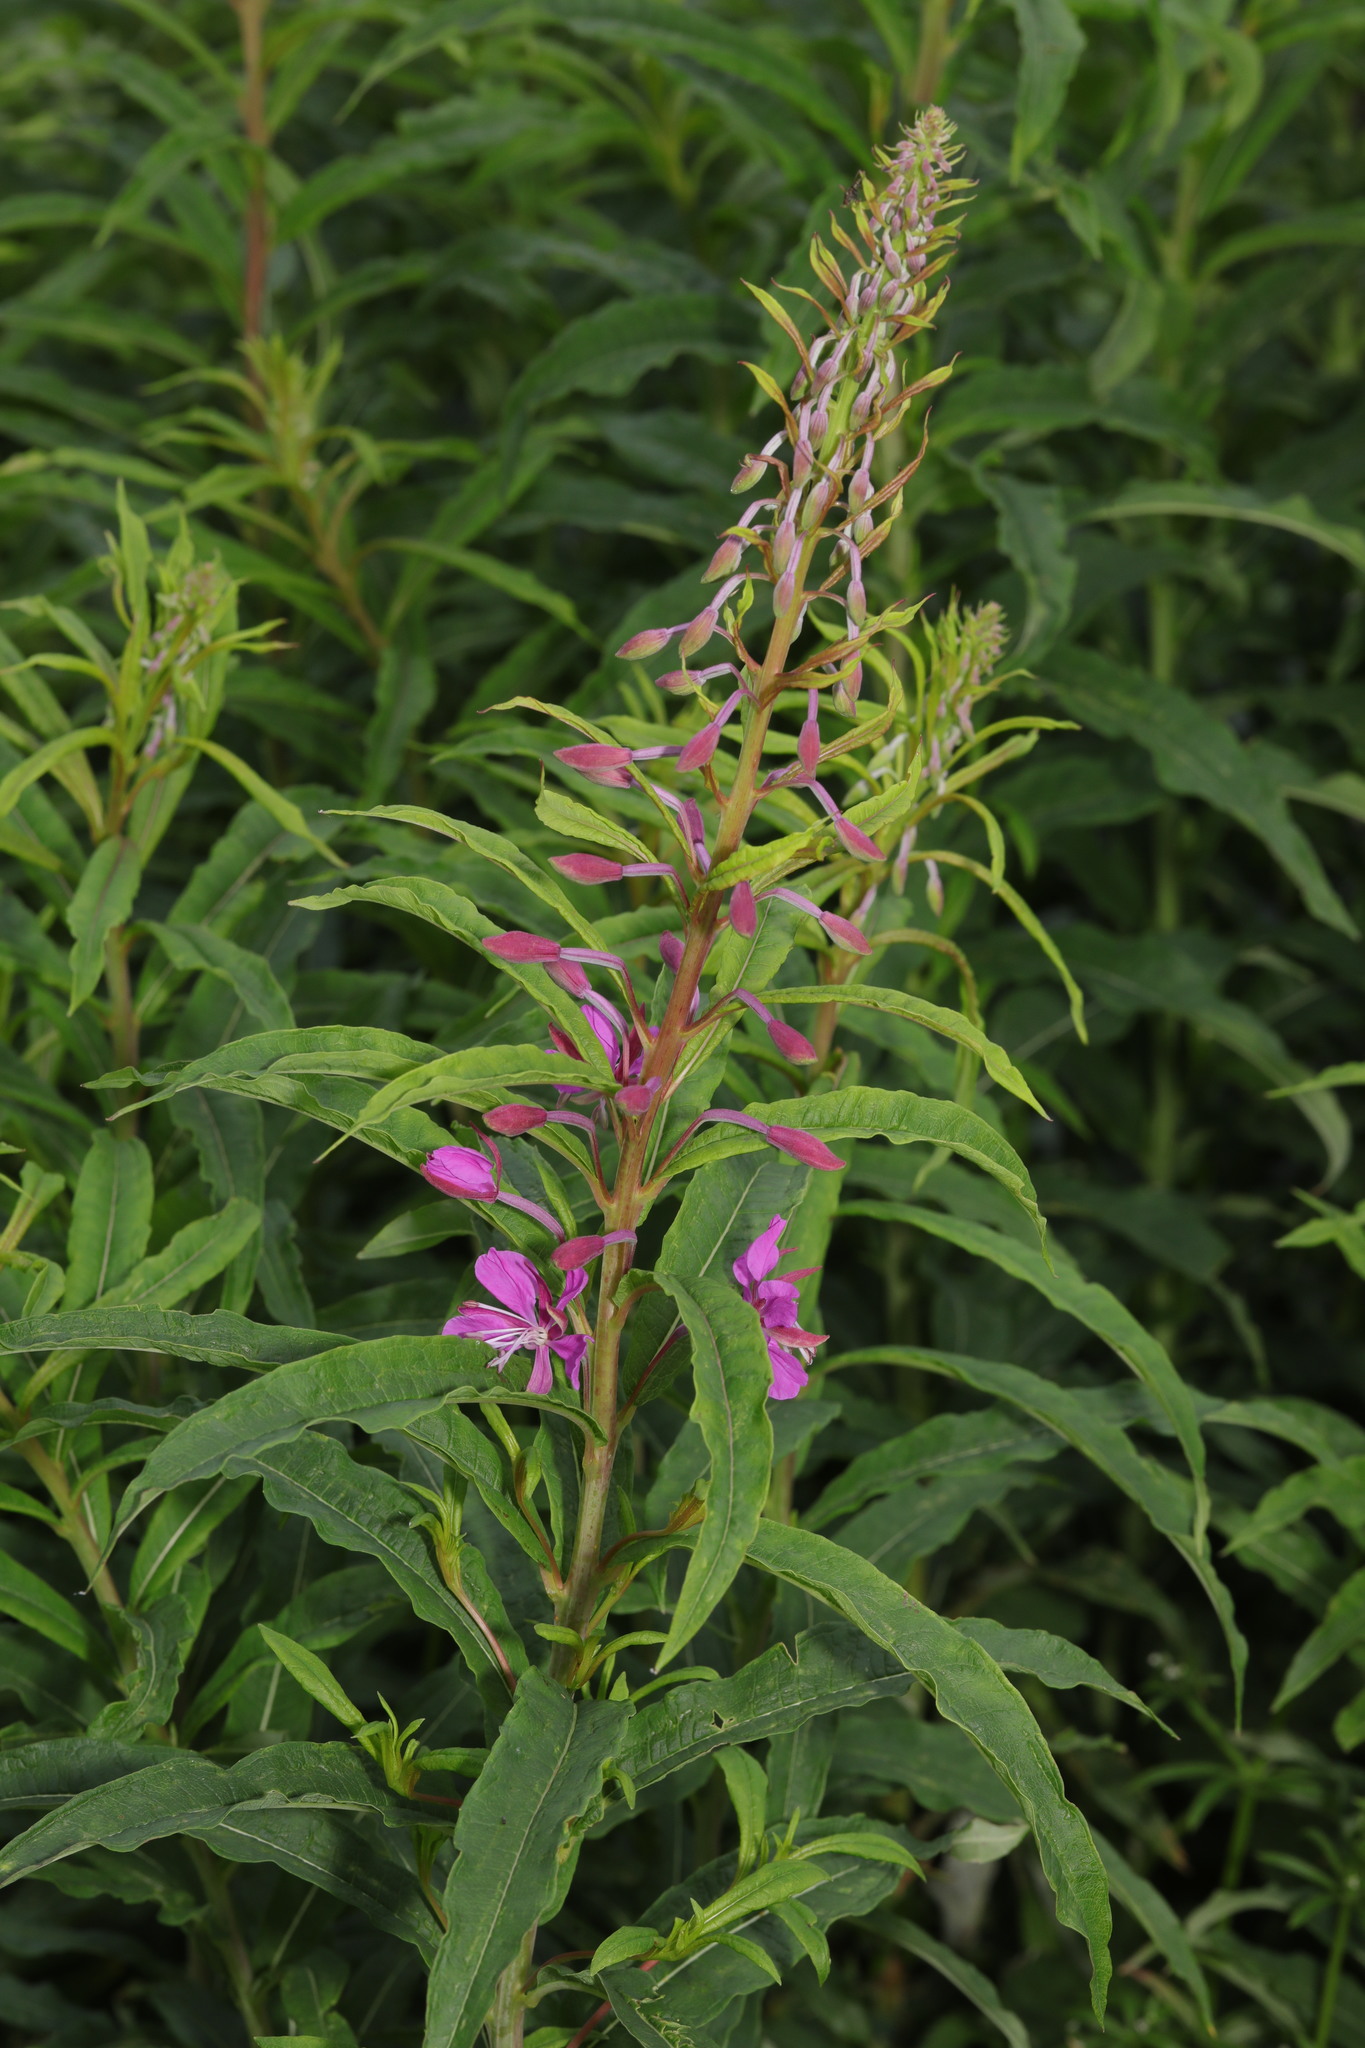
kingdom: Plantae
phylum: Tracheophyta
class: Magnoliopsida
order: Myrtales
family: Onagraceae
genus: Chamaenerion
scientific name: Chamaenerion angustifolium
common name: Fireweed
